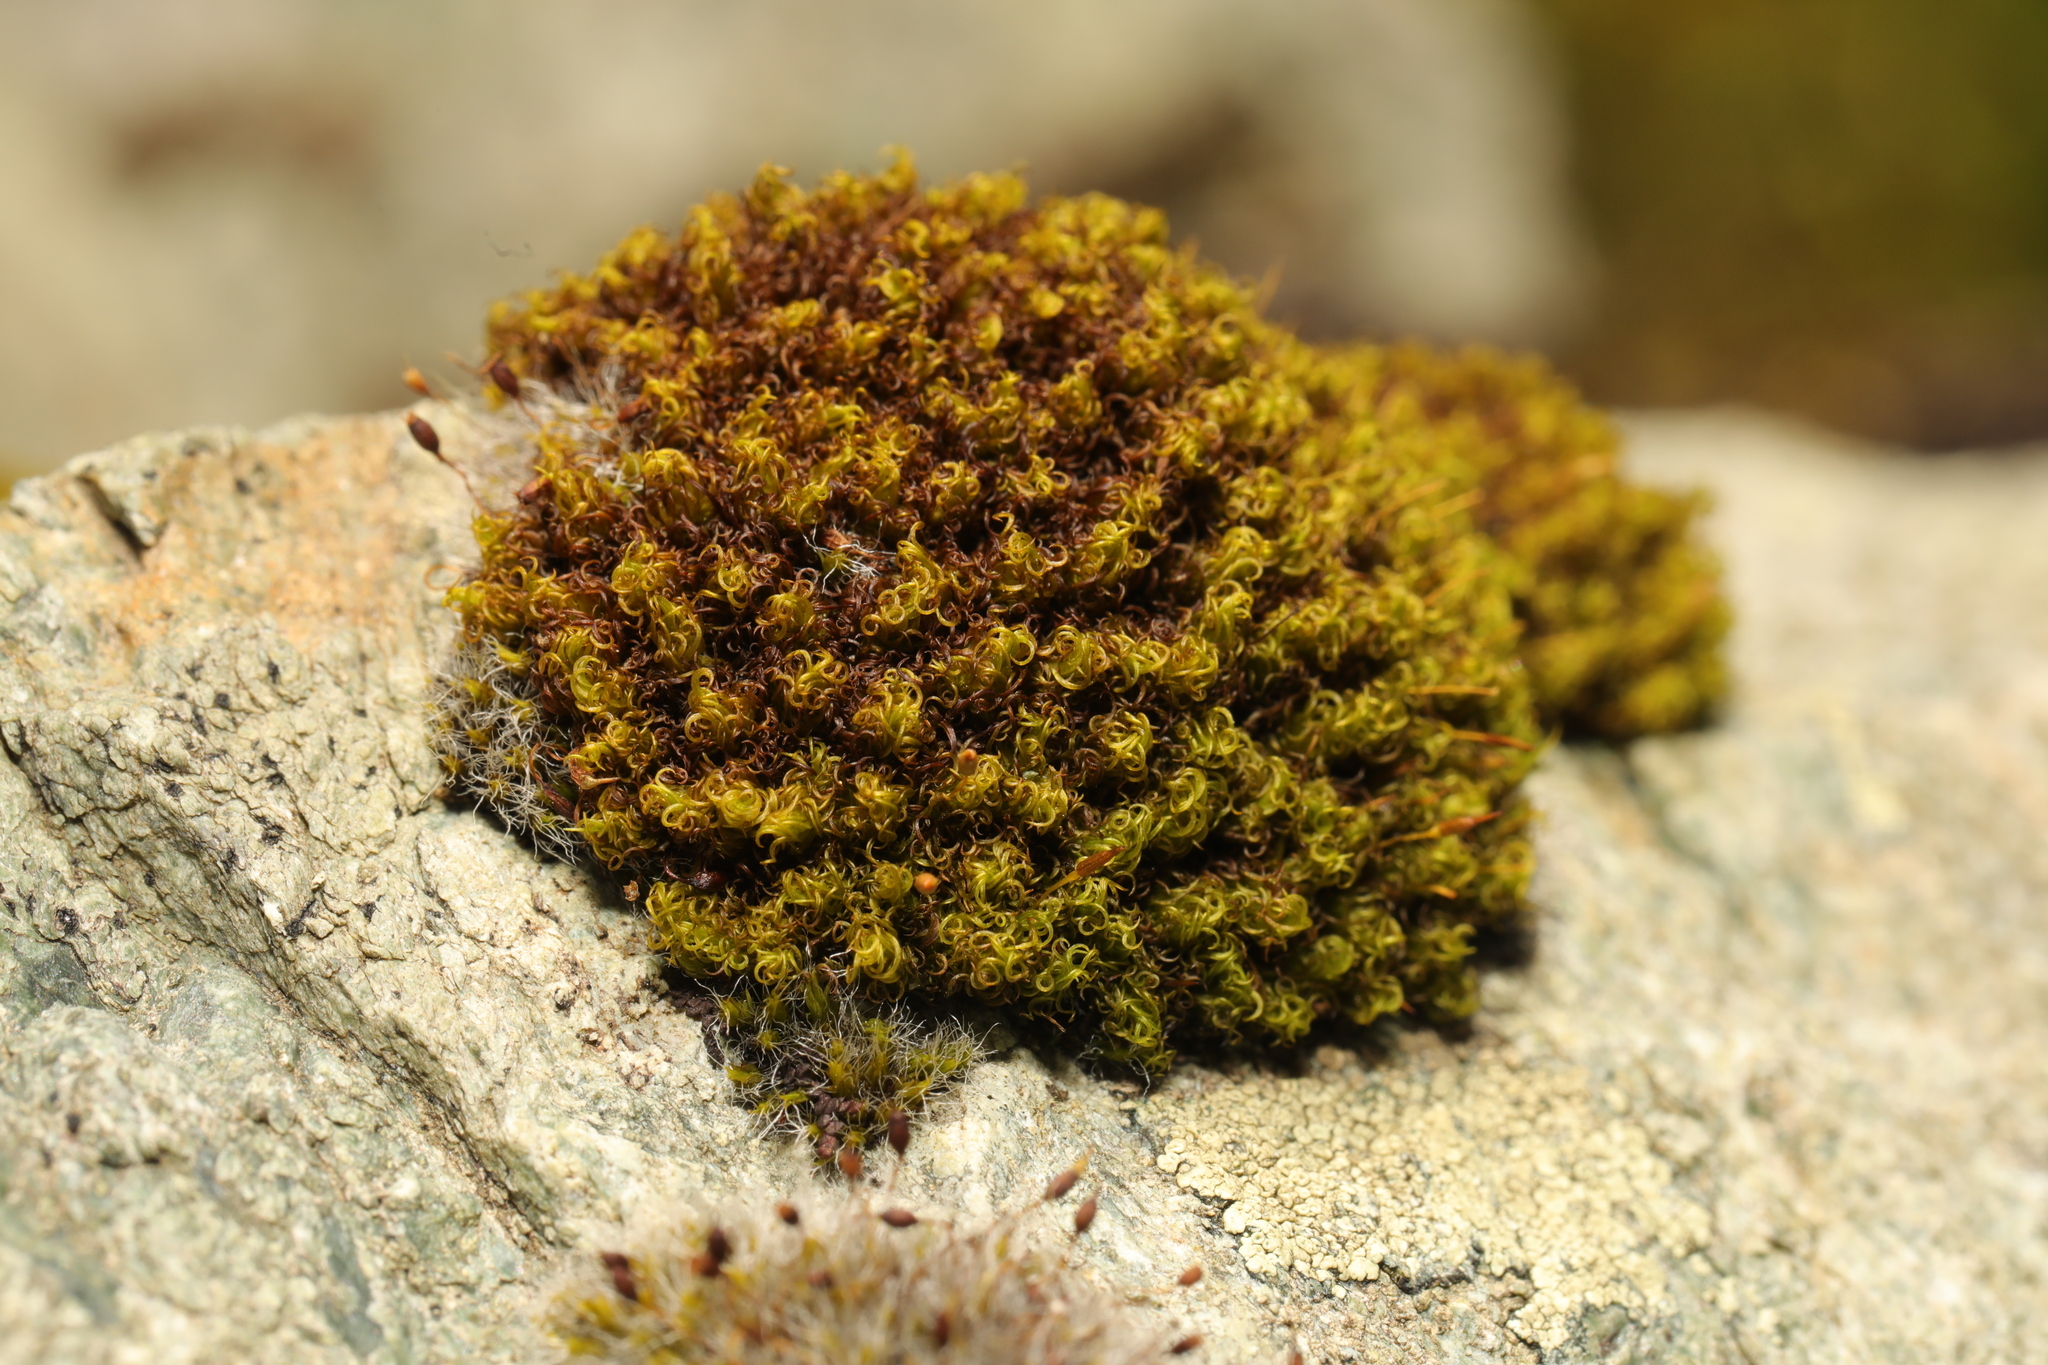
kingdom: Plantae
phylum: Bryophyta
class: Bryopsida
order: Dicranales
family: Rhabdoweisiaceae
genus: Dicranoweisia
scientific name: Dicranoweisia cirrata
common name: Common pincushion
